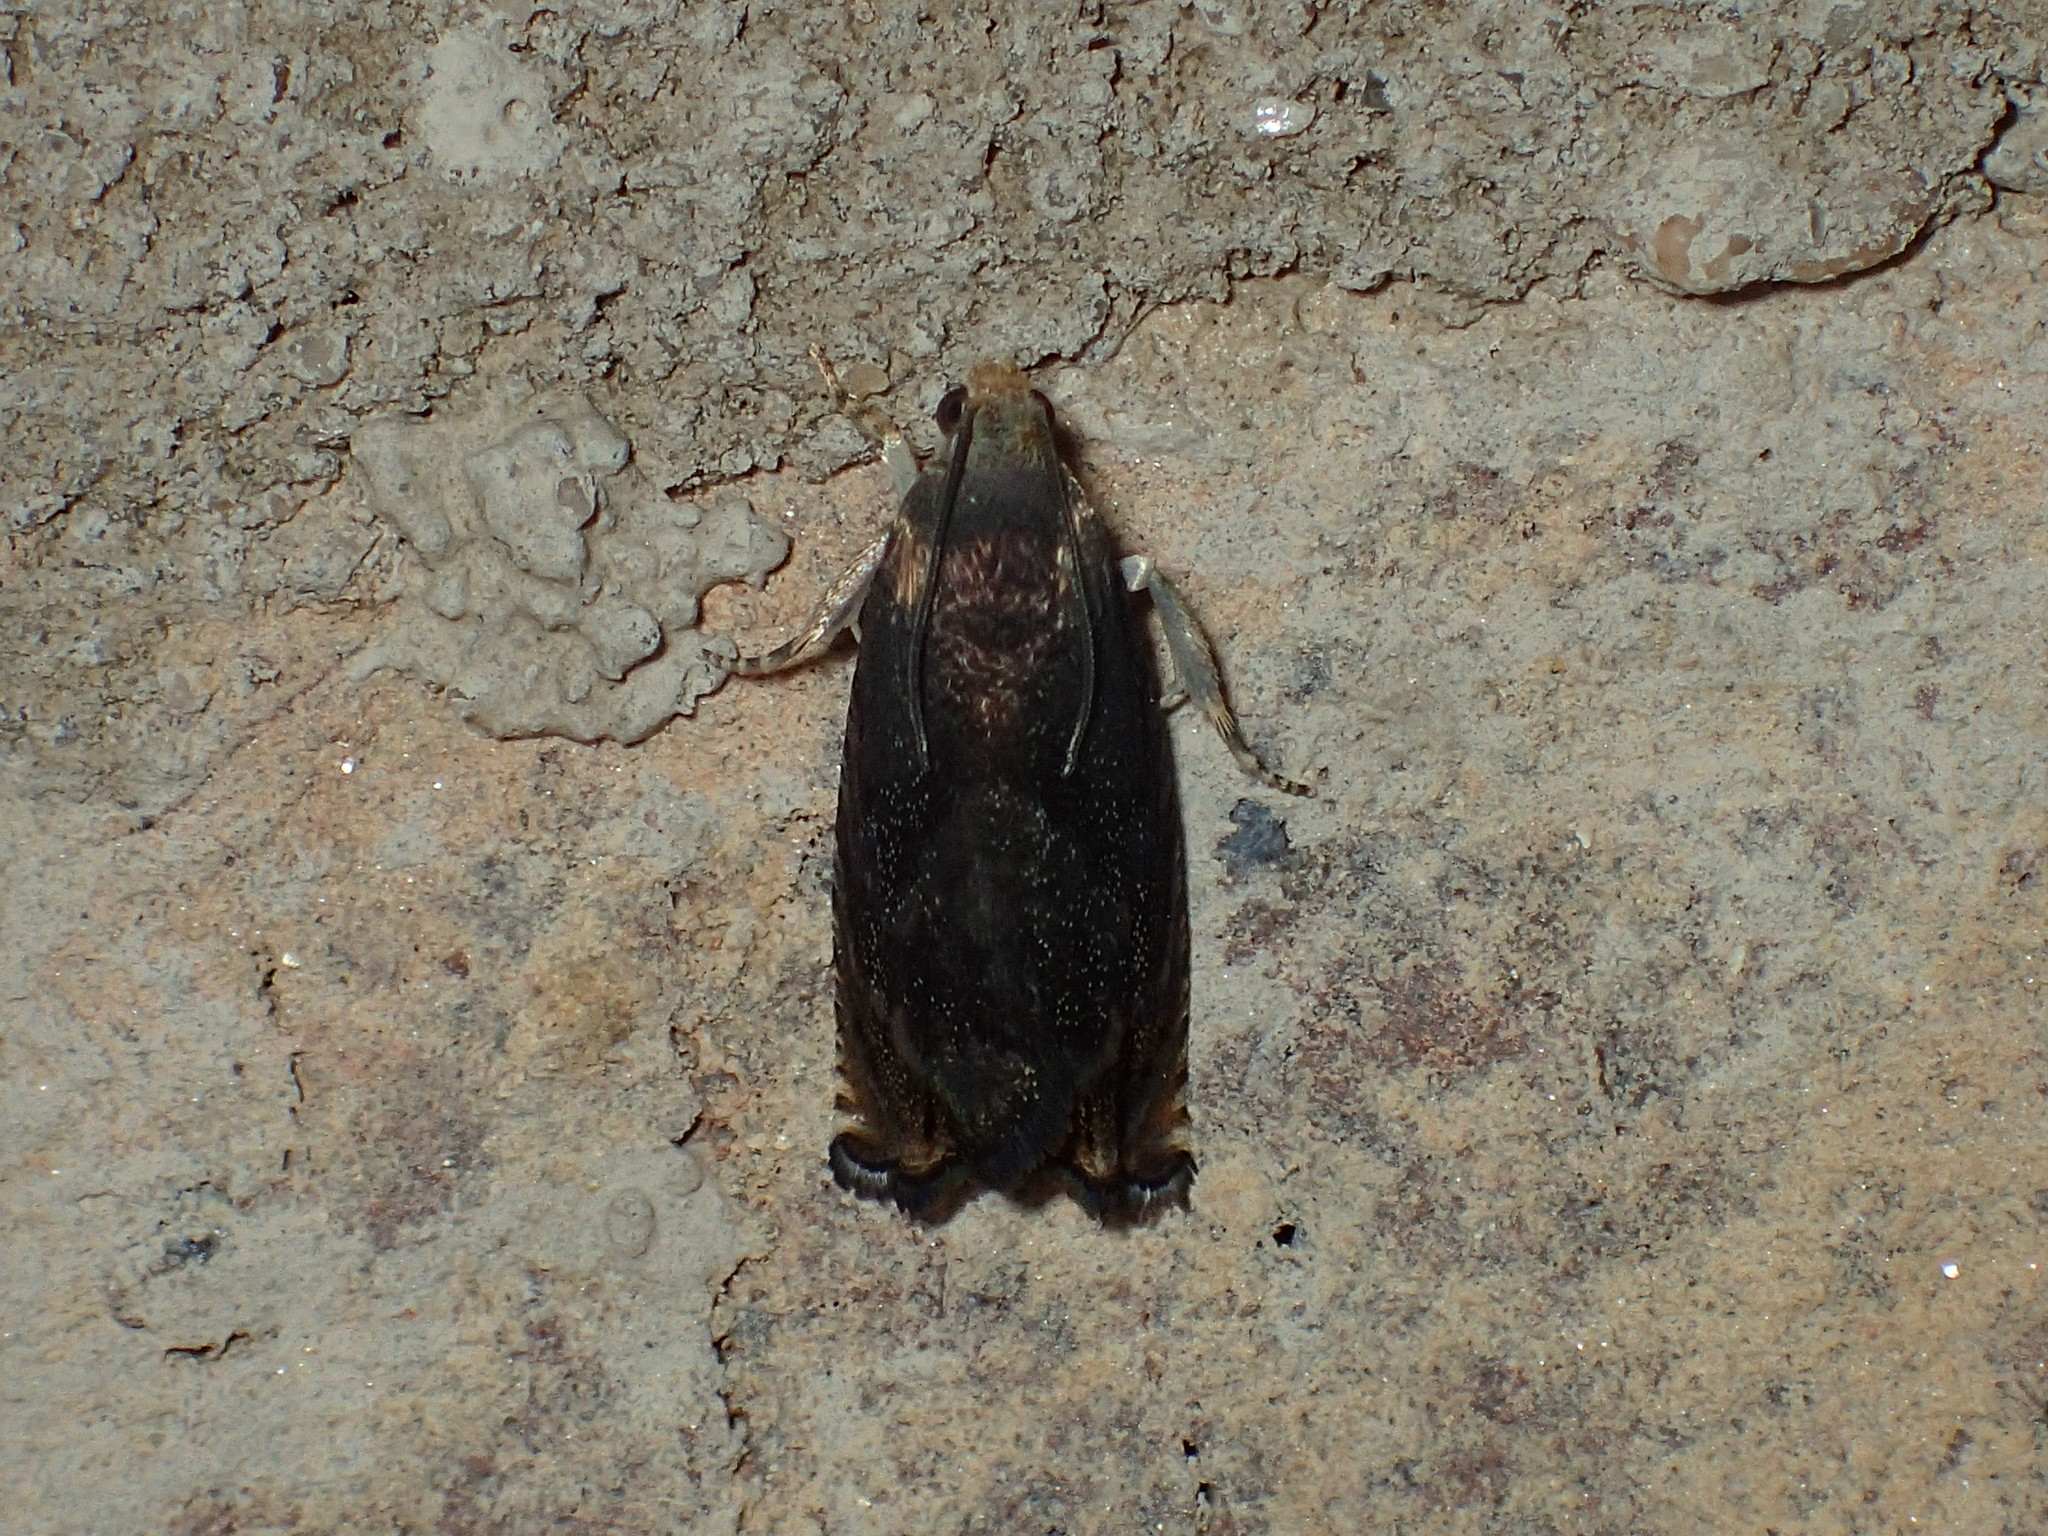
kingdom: Animalia
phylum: Arthropoda
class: Insecta
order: Lepidoptera
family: Tortricidae
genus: Cydia
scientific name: Cydia caryana
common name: Hickory shuckworm moth
